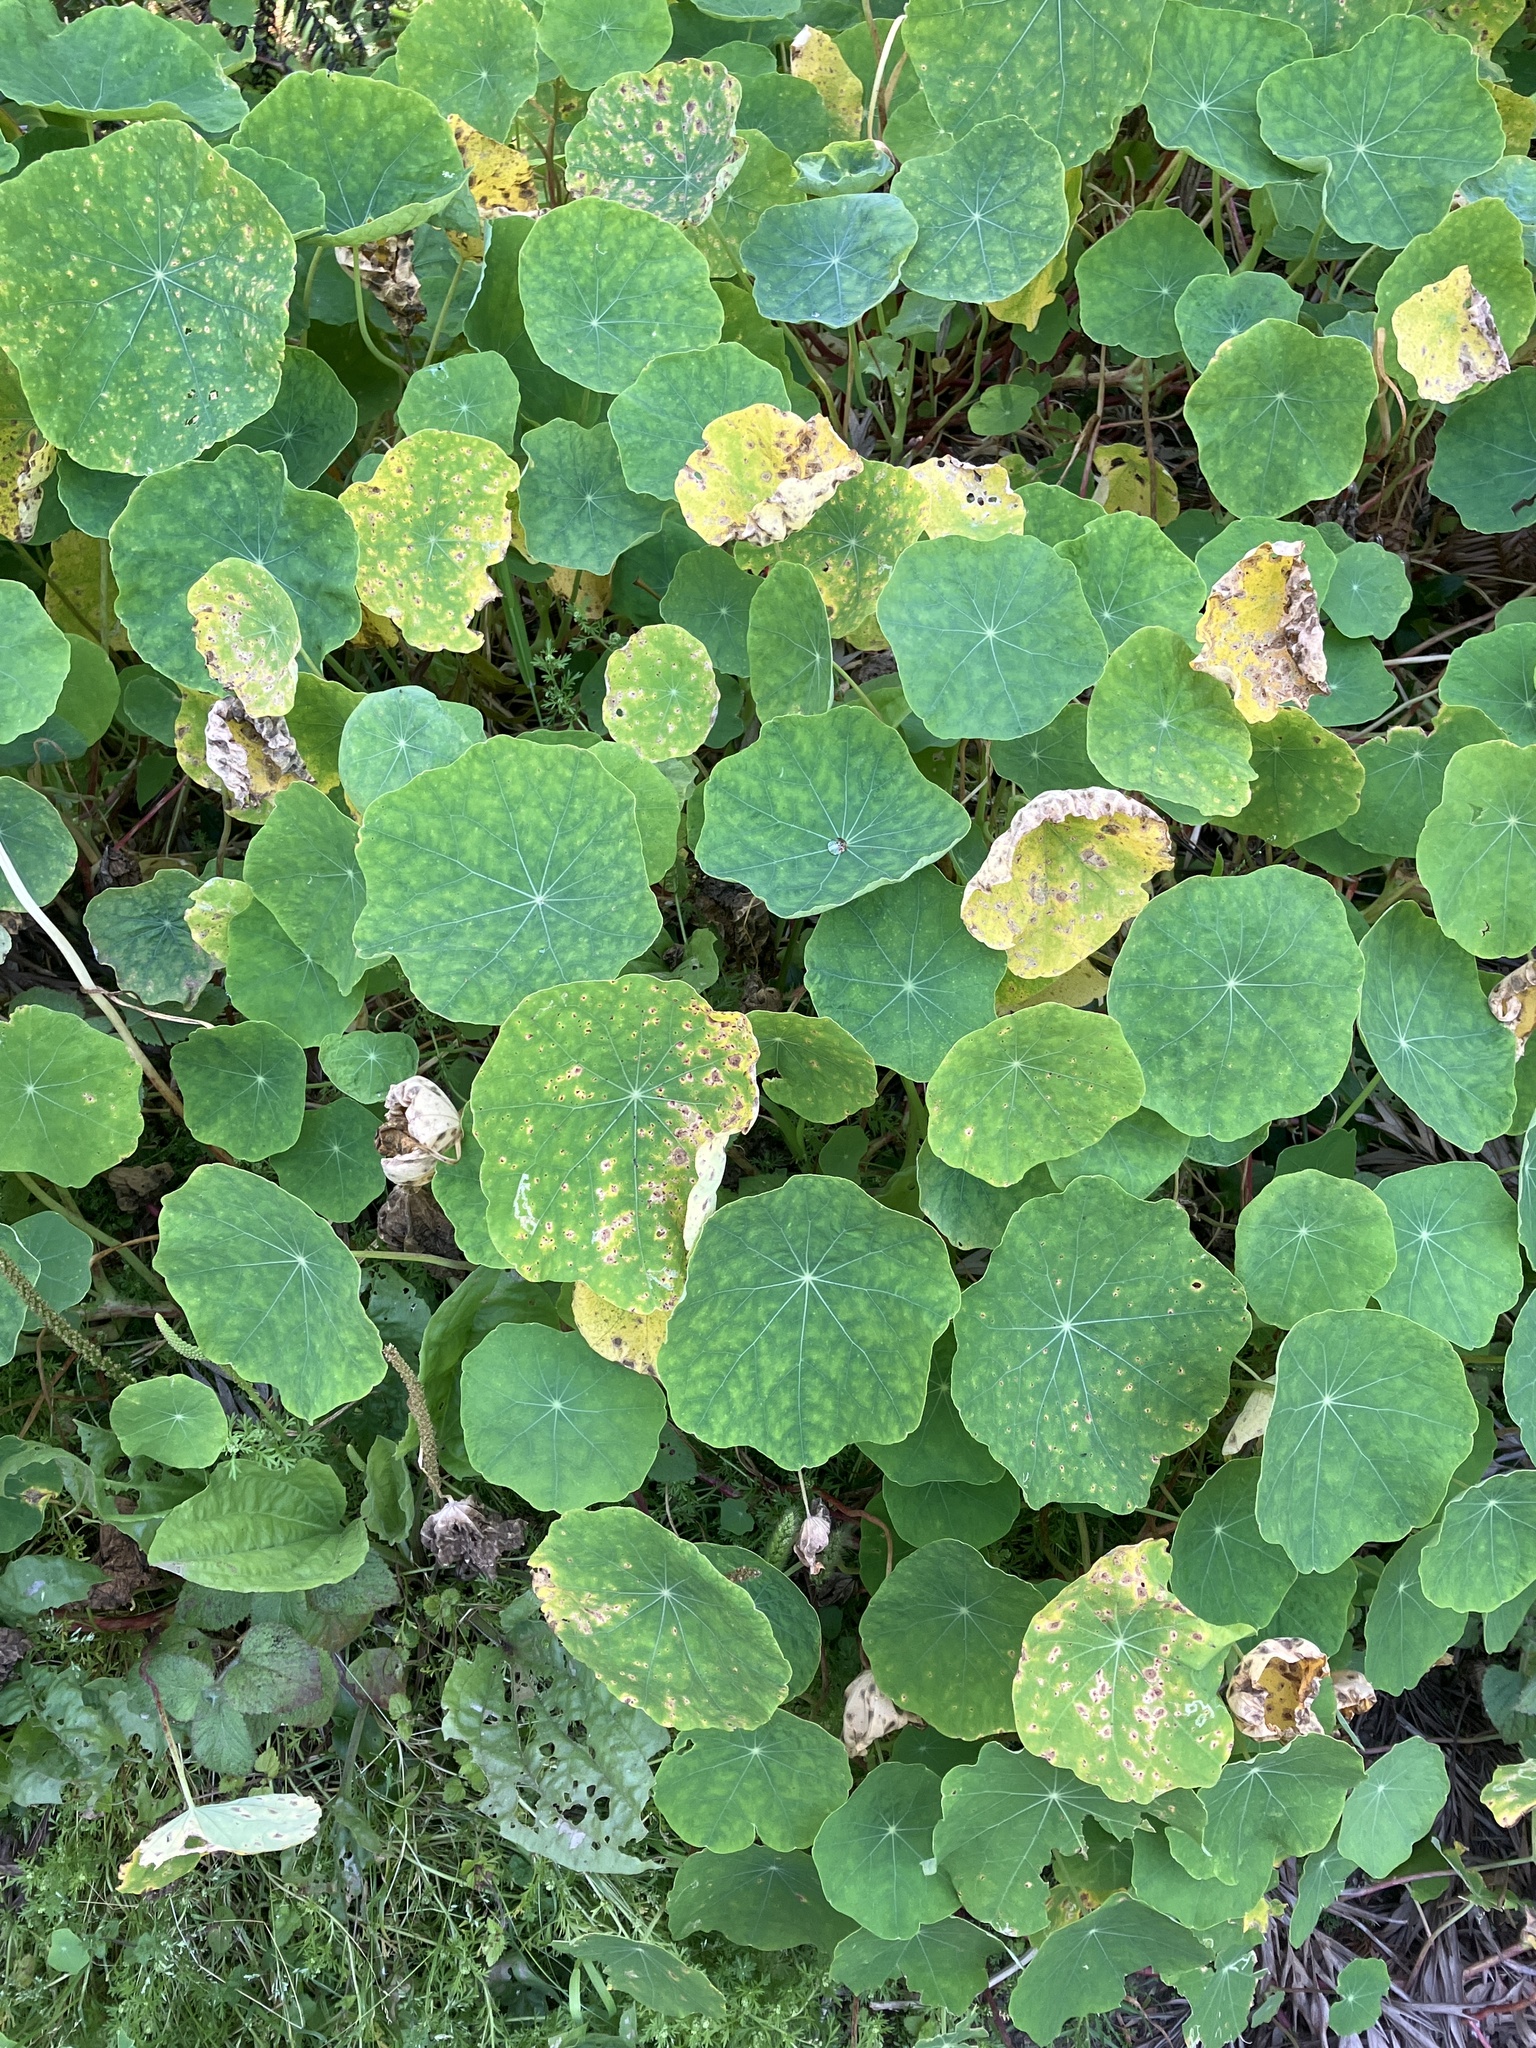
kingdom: Plantae
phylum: Tracheophyta
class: Magnoliopsida
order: Brassicales
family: Tropaeolaceae
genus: Tropaeolum
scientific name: Tropaeolum majus
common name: Nasturtium
